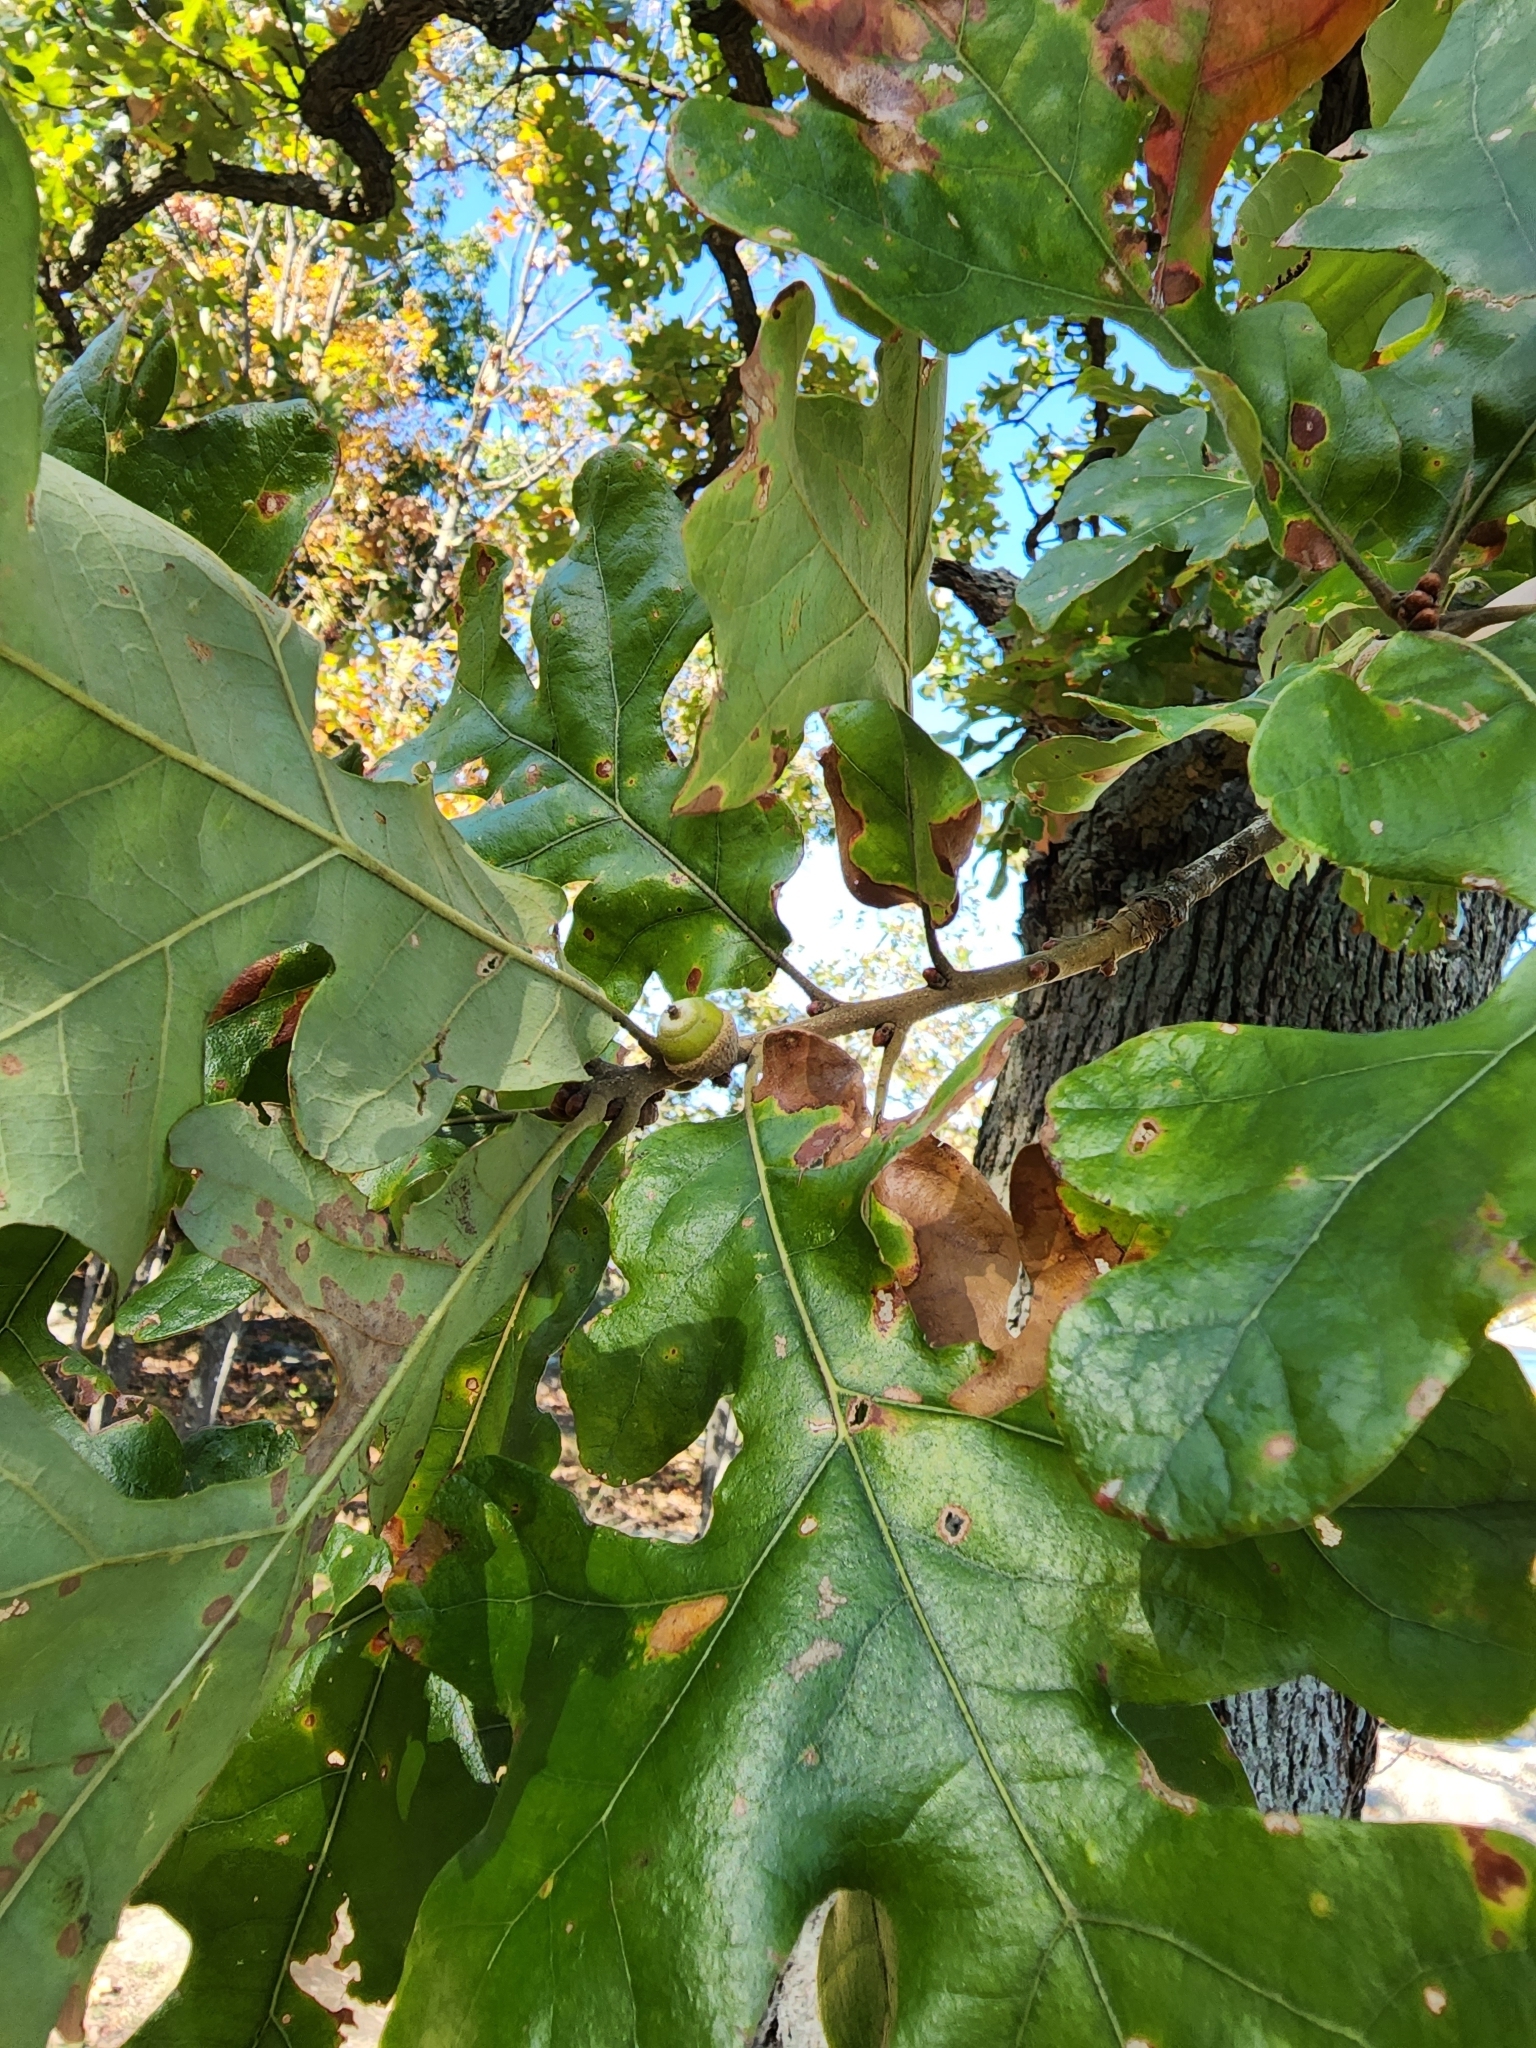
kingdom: Plantae
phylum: Tracheophyta
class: Magnoliopsida
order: Fagales
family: Fagaceae
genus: Quercus
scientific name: Quercus stellata
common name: Post oak
